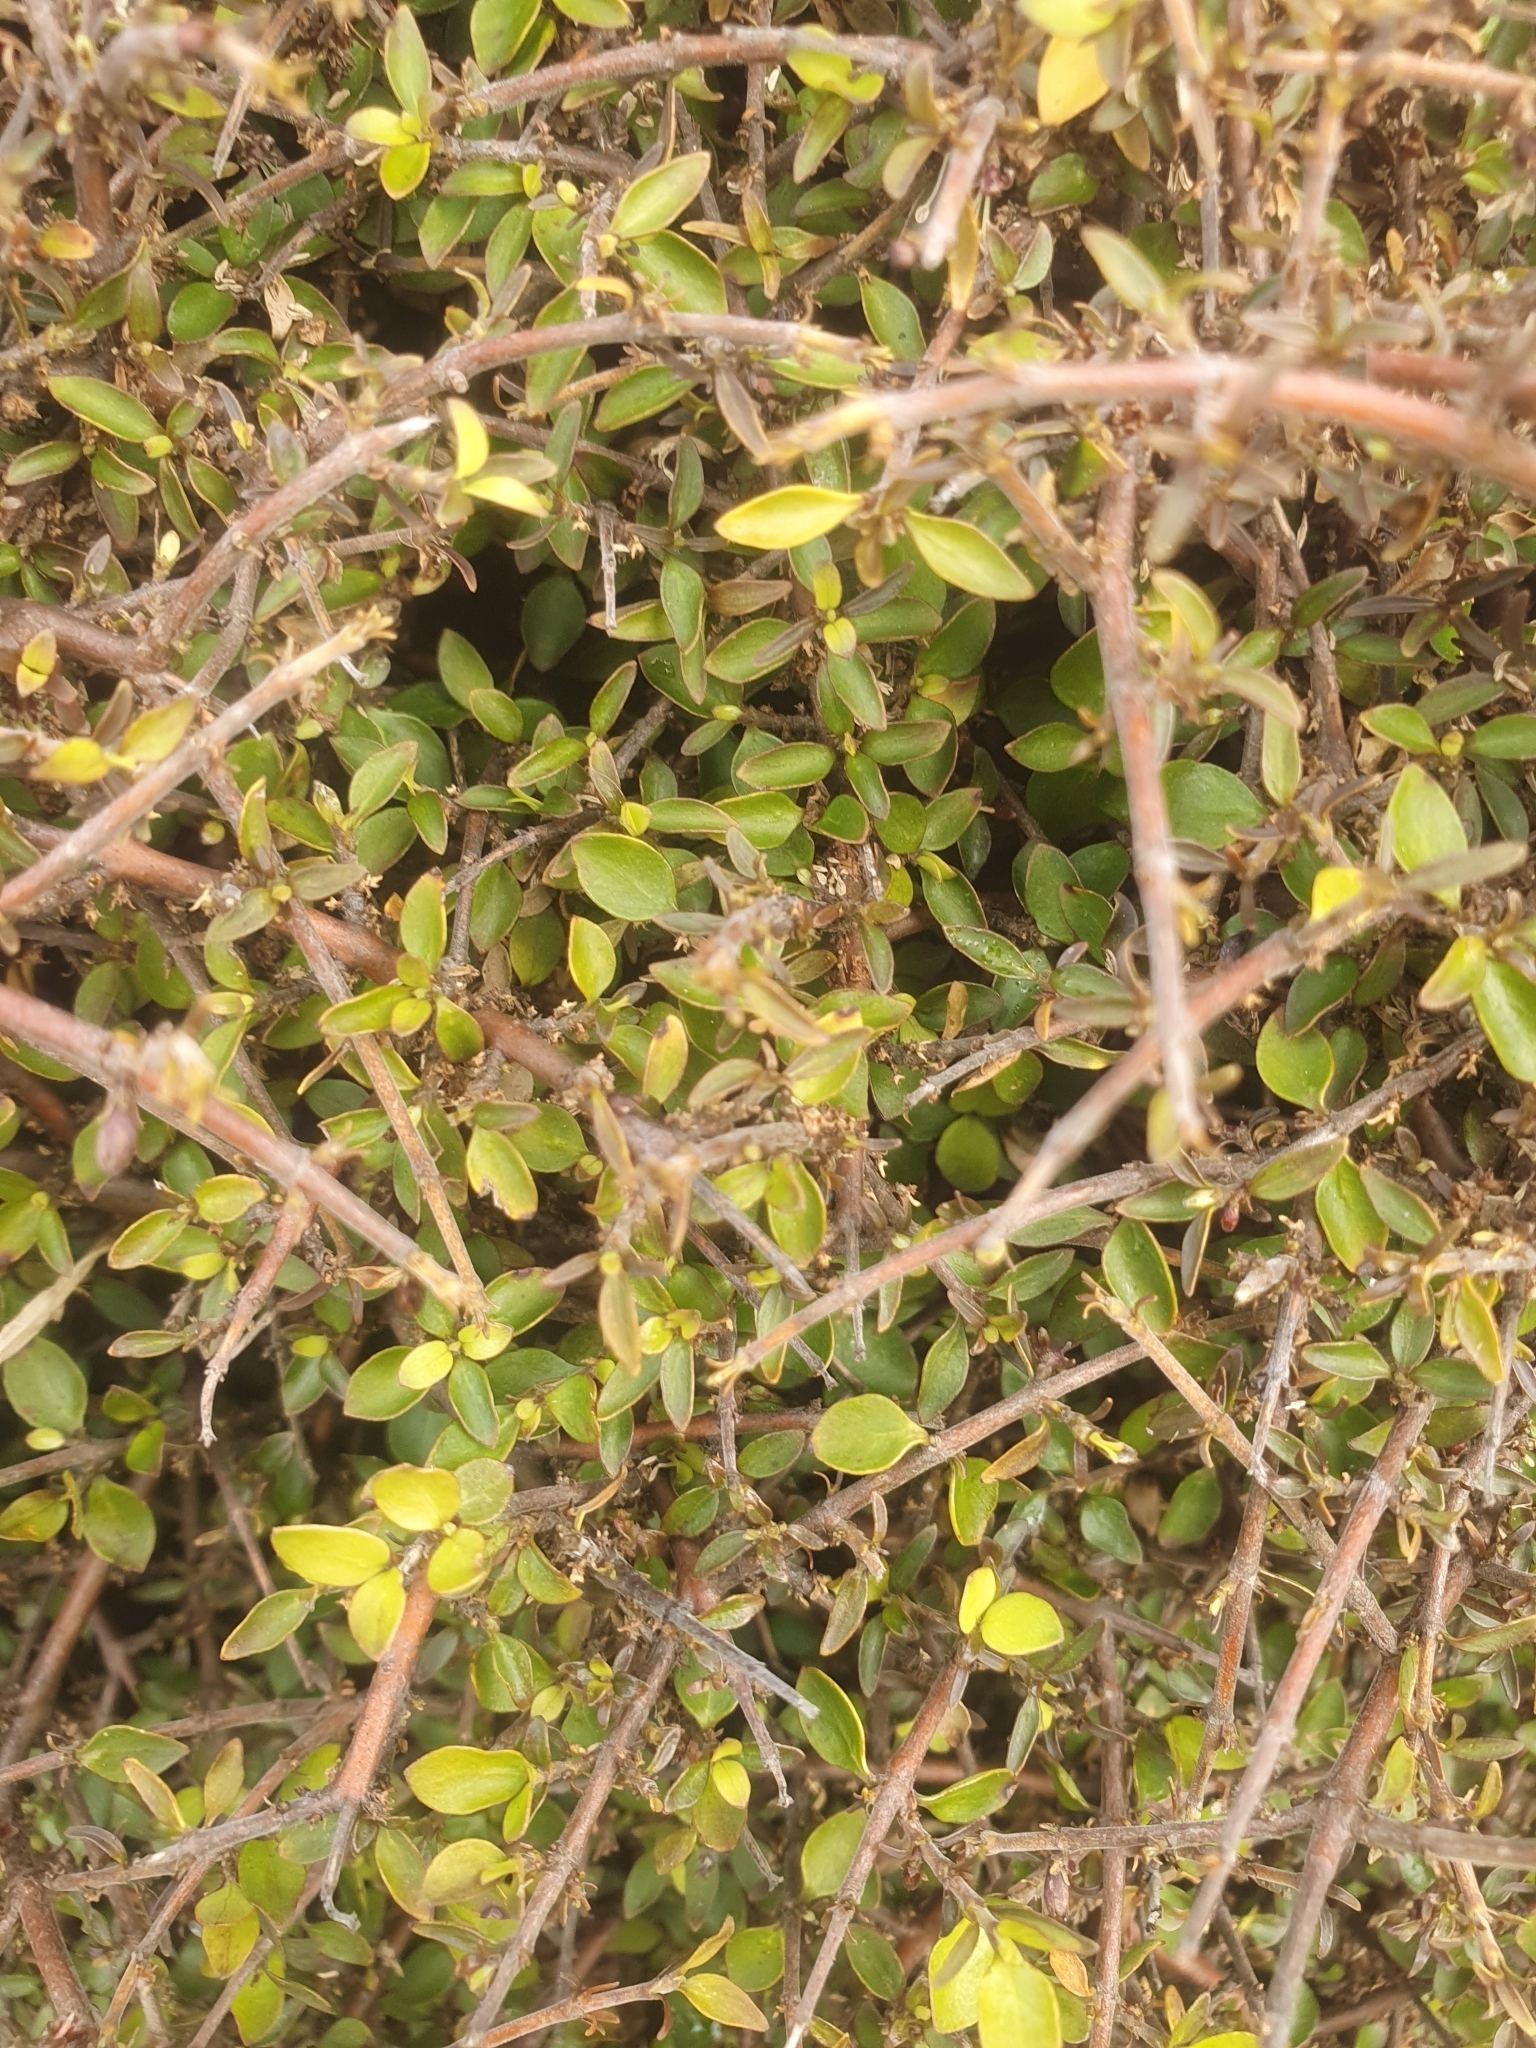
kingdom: Plantae
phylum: Tracheophyta
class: Magnoliopsida
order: Gentianales
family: Rubiaceae
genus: Coprosma
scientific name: Coprosma rhamnoides
